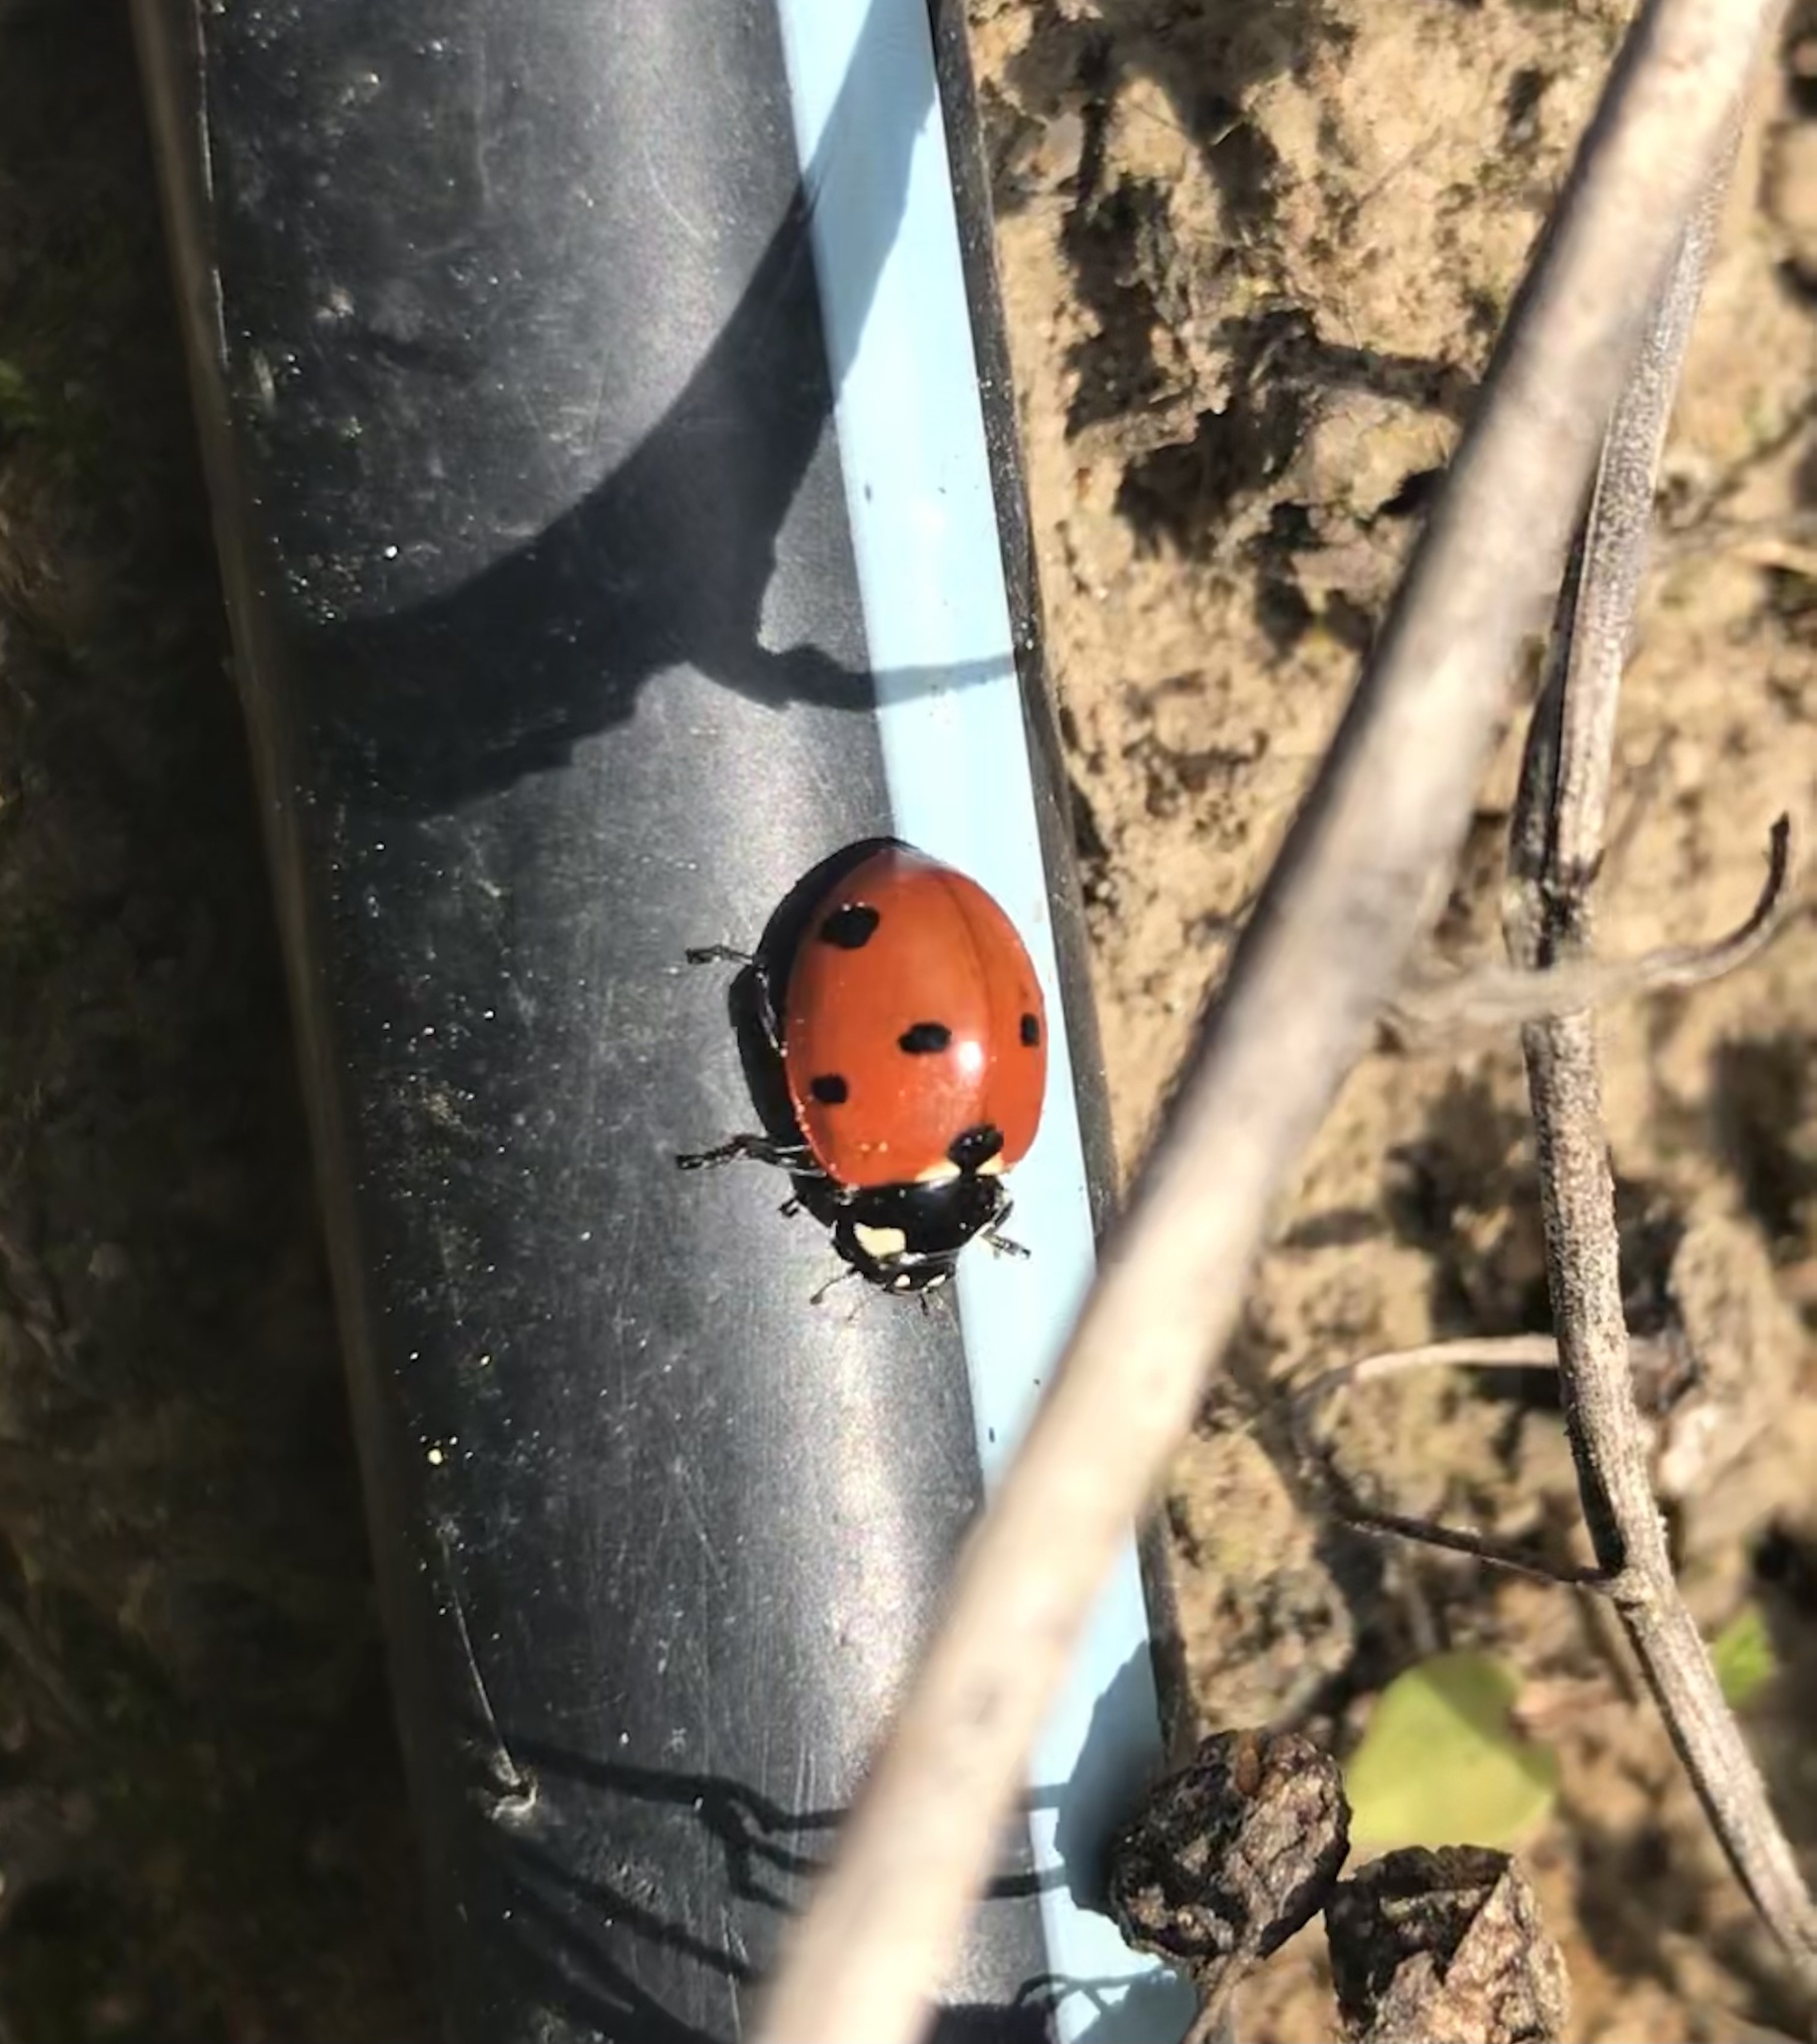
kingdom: Animalia
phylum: Arthropoda
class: Insecta
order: Coleoptera
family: Coccinellidae
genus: Coccinella
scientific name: Coccinella septempunctata
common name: Sevenspotted lady beetle
